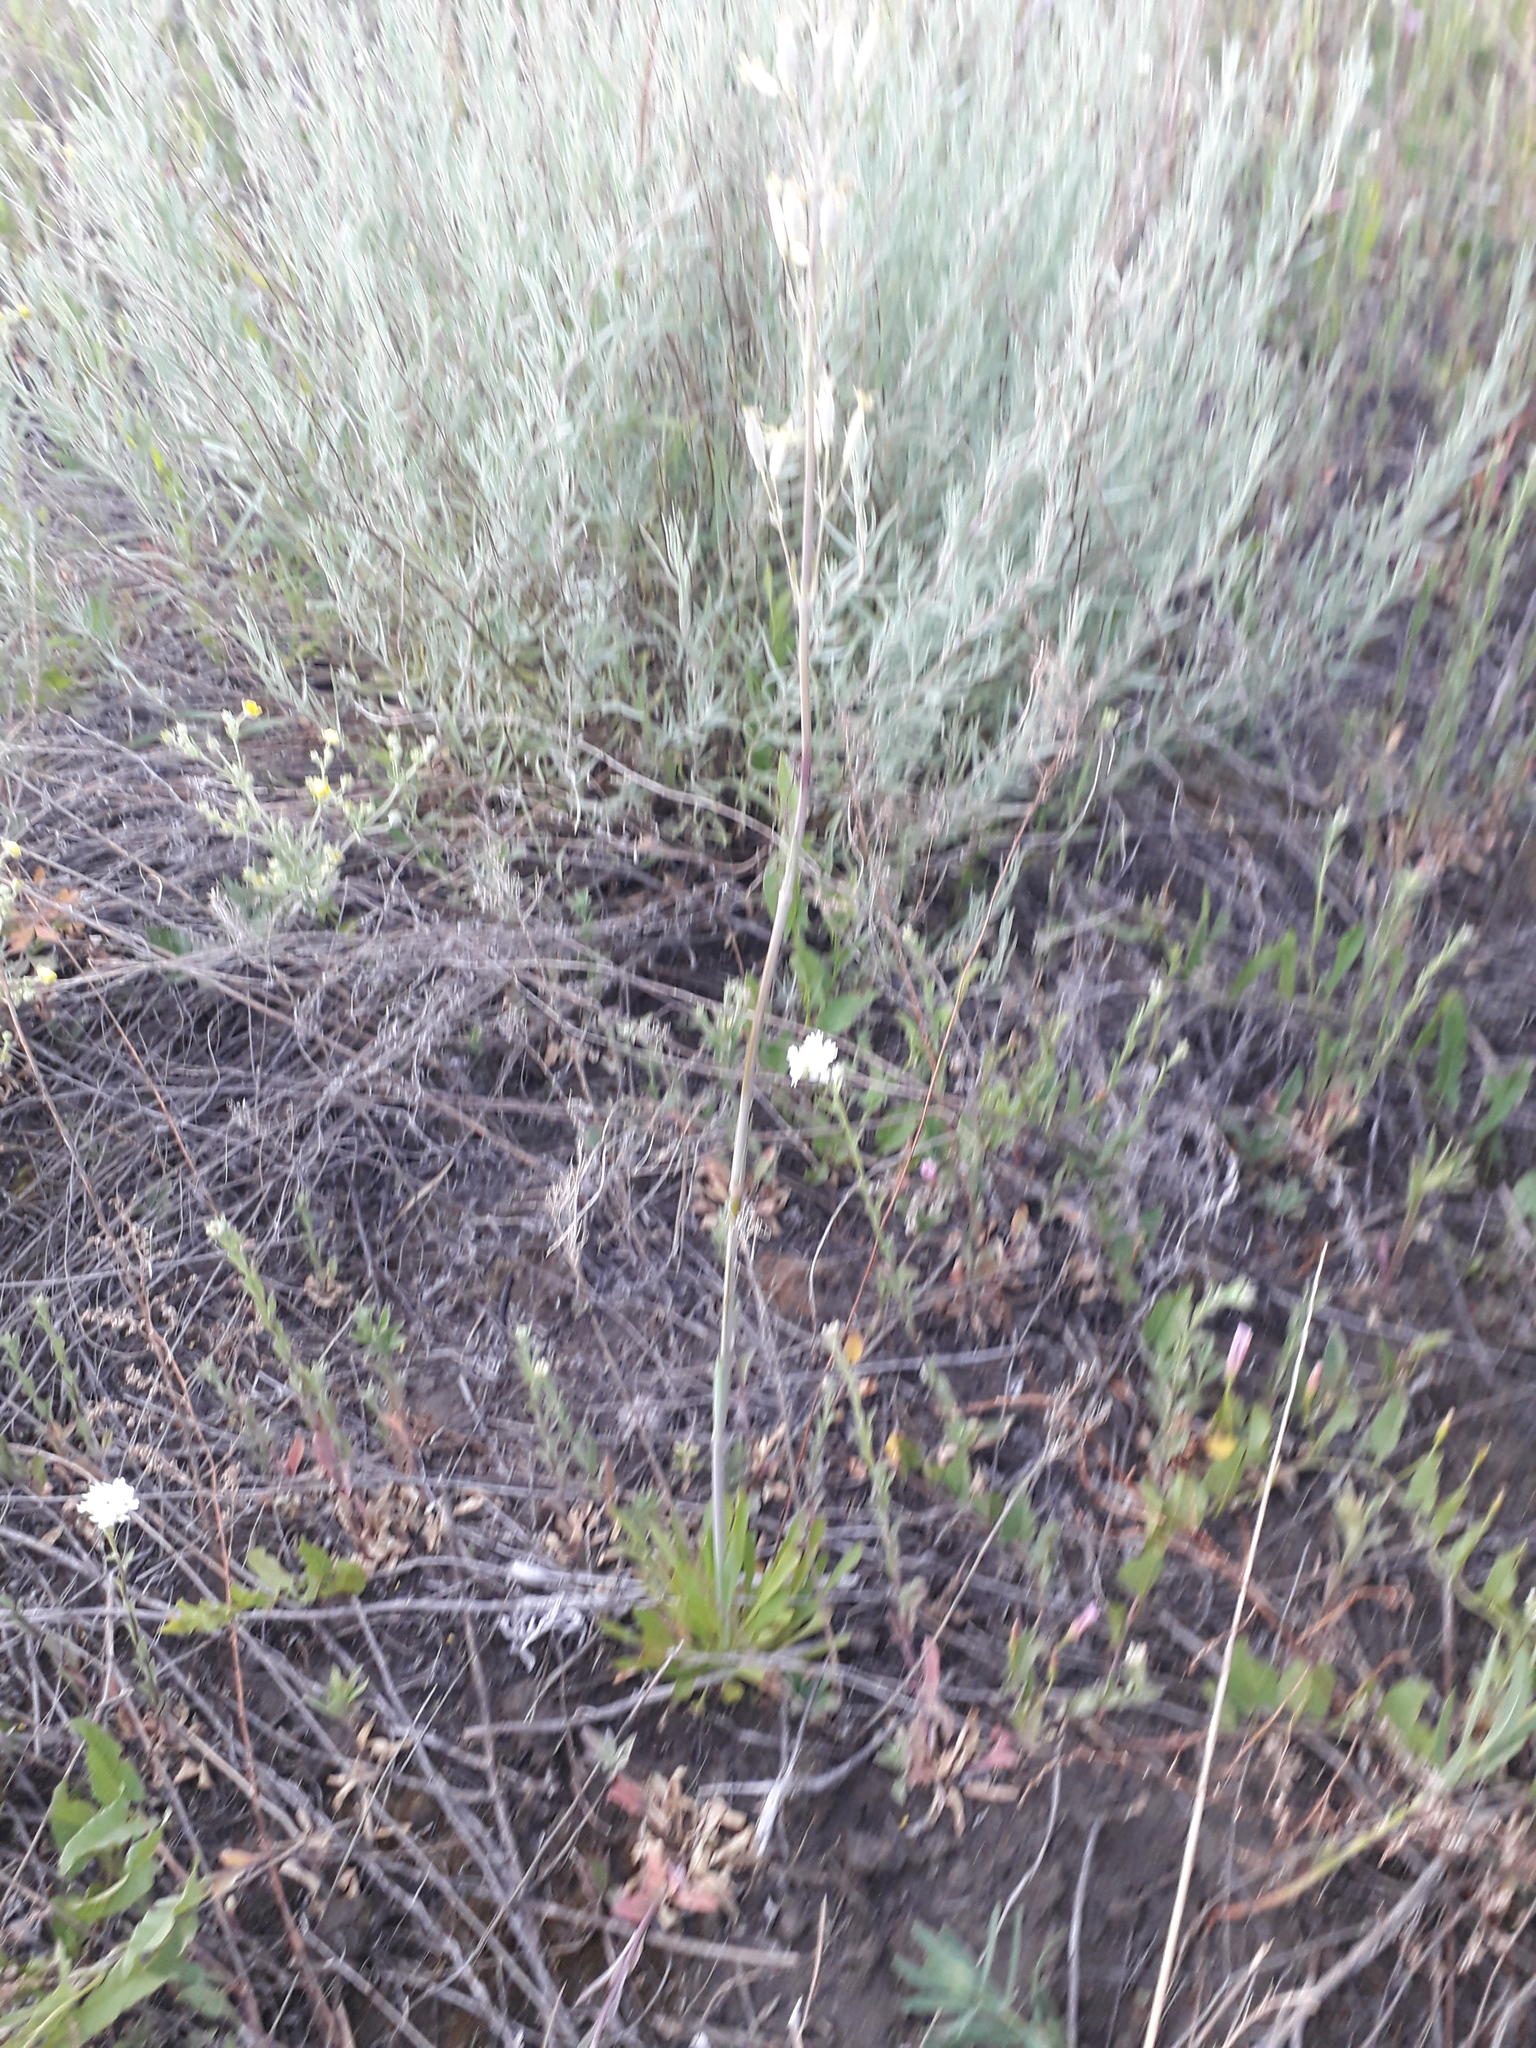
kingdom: Plantae
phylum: Tracheophyta
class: Magnoliopsida
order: Caryophyllales
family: Caryophyllaceae
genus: Silene
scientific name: Silene viscosa
